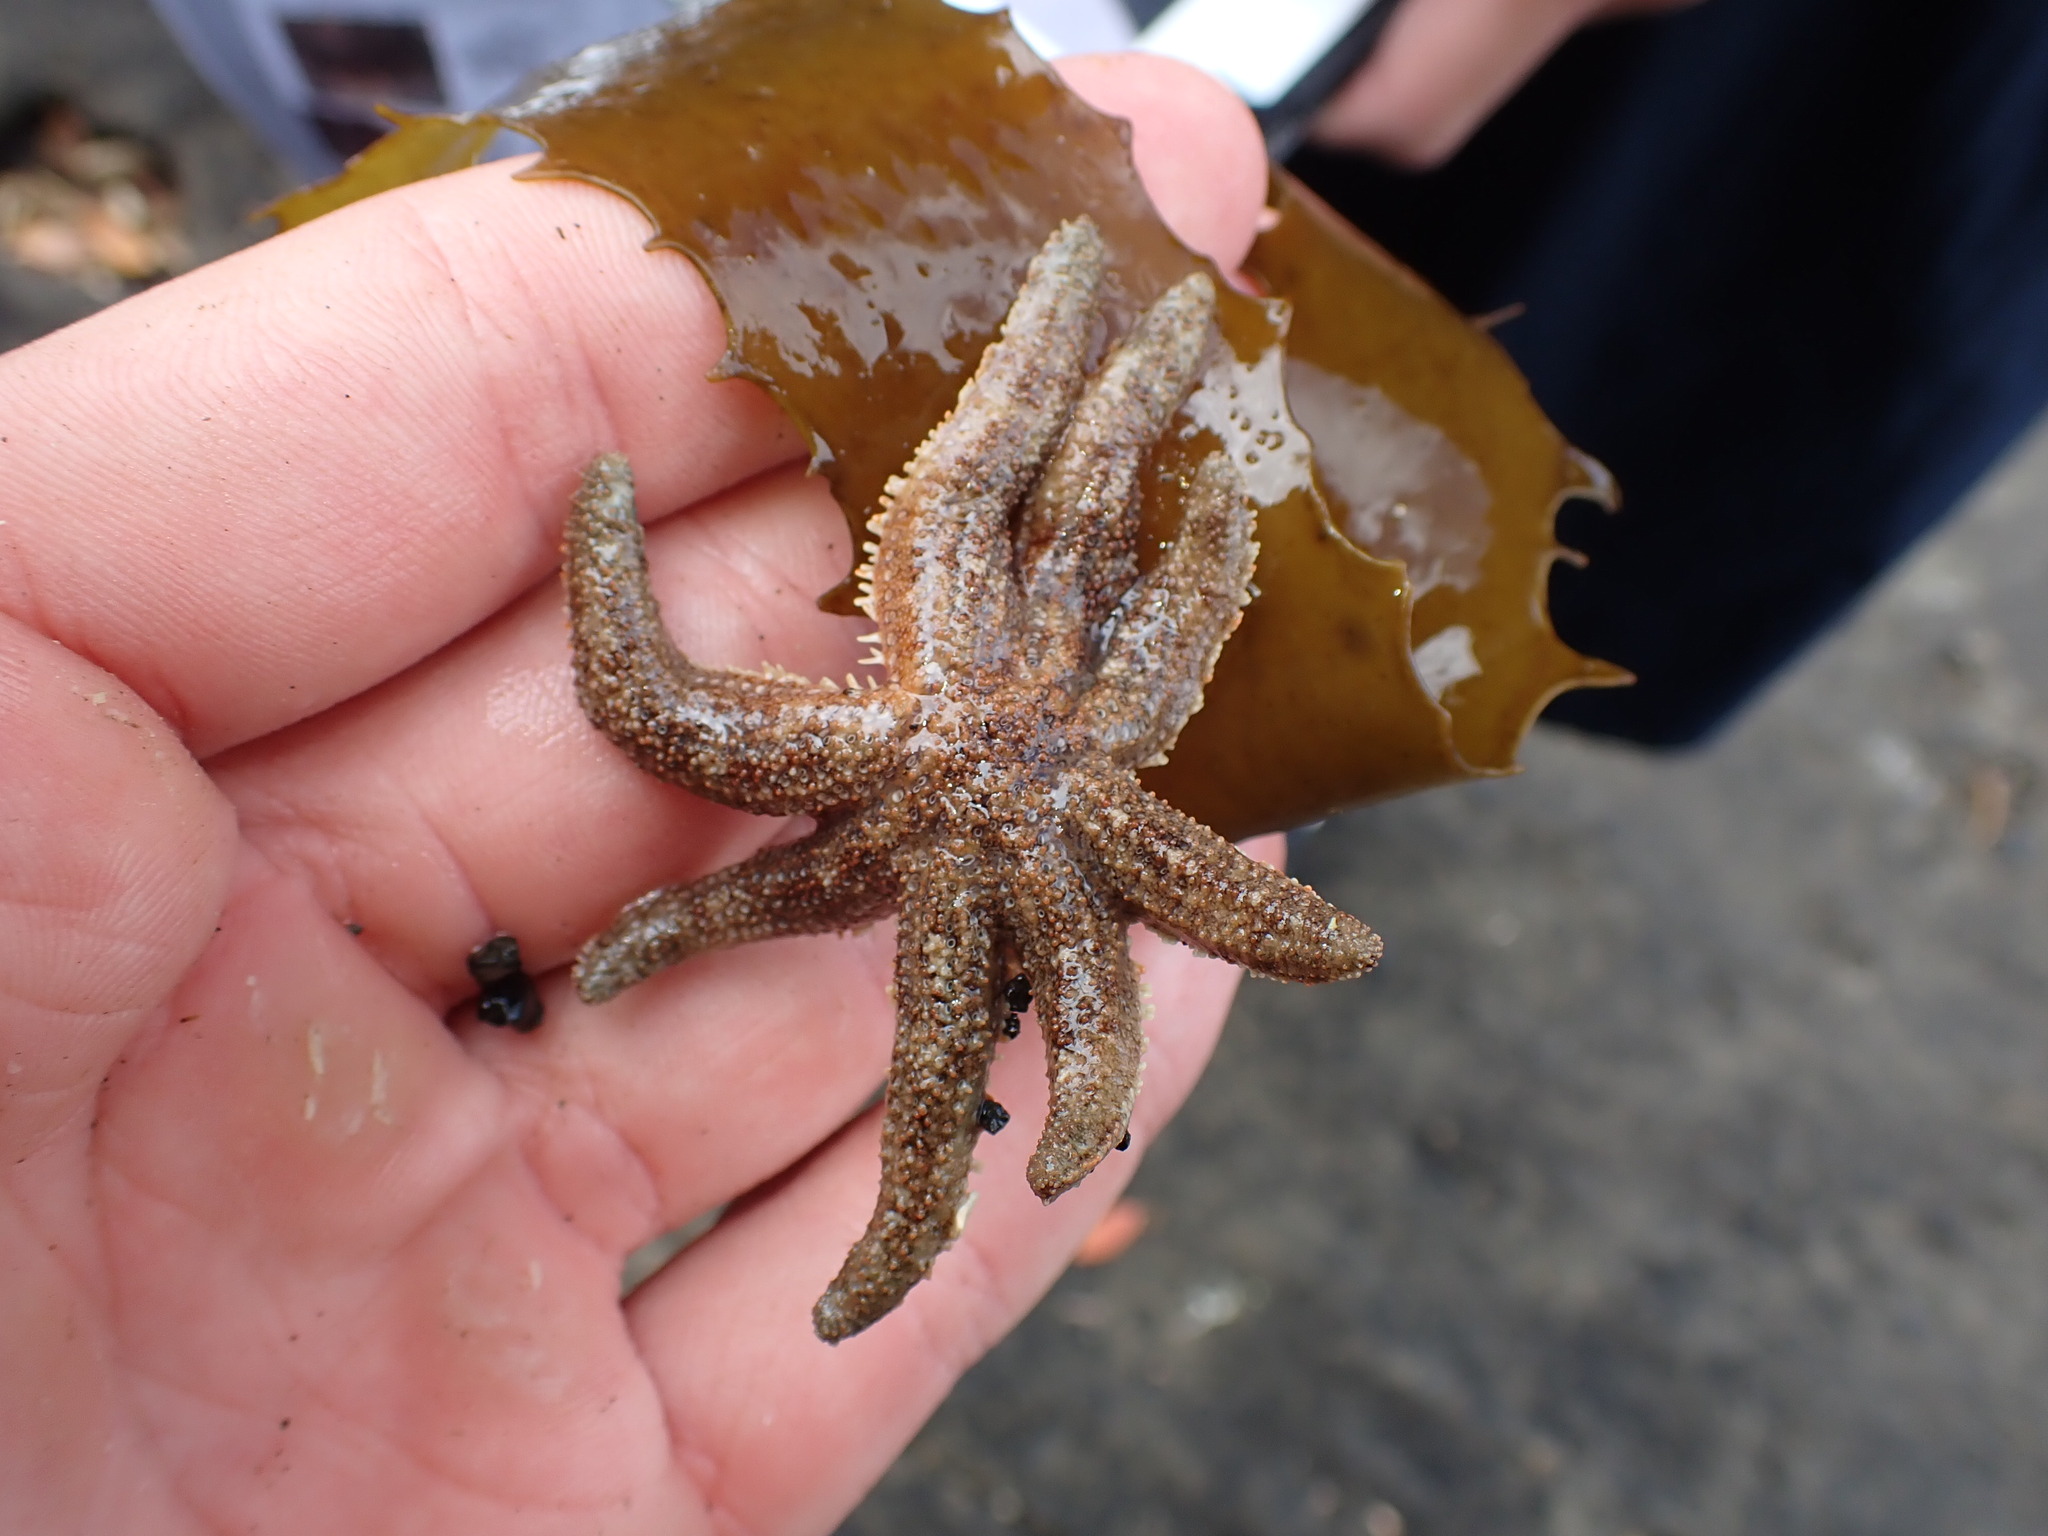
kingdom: Animalia
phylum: Echinodermata
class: Asteroidea
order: Forcipulatida
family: Stichasteridae
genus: Allostichaster
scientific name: Allostichaster polyplax
